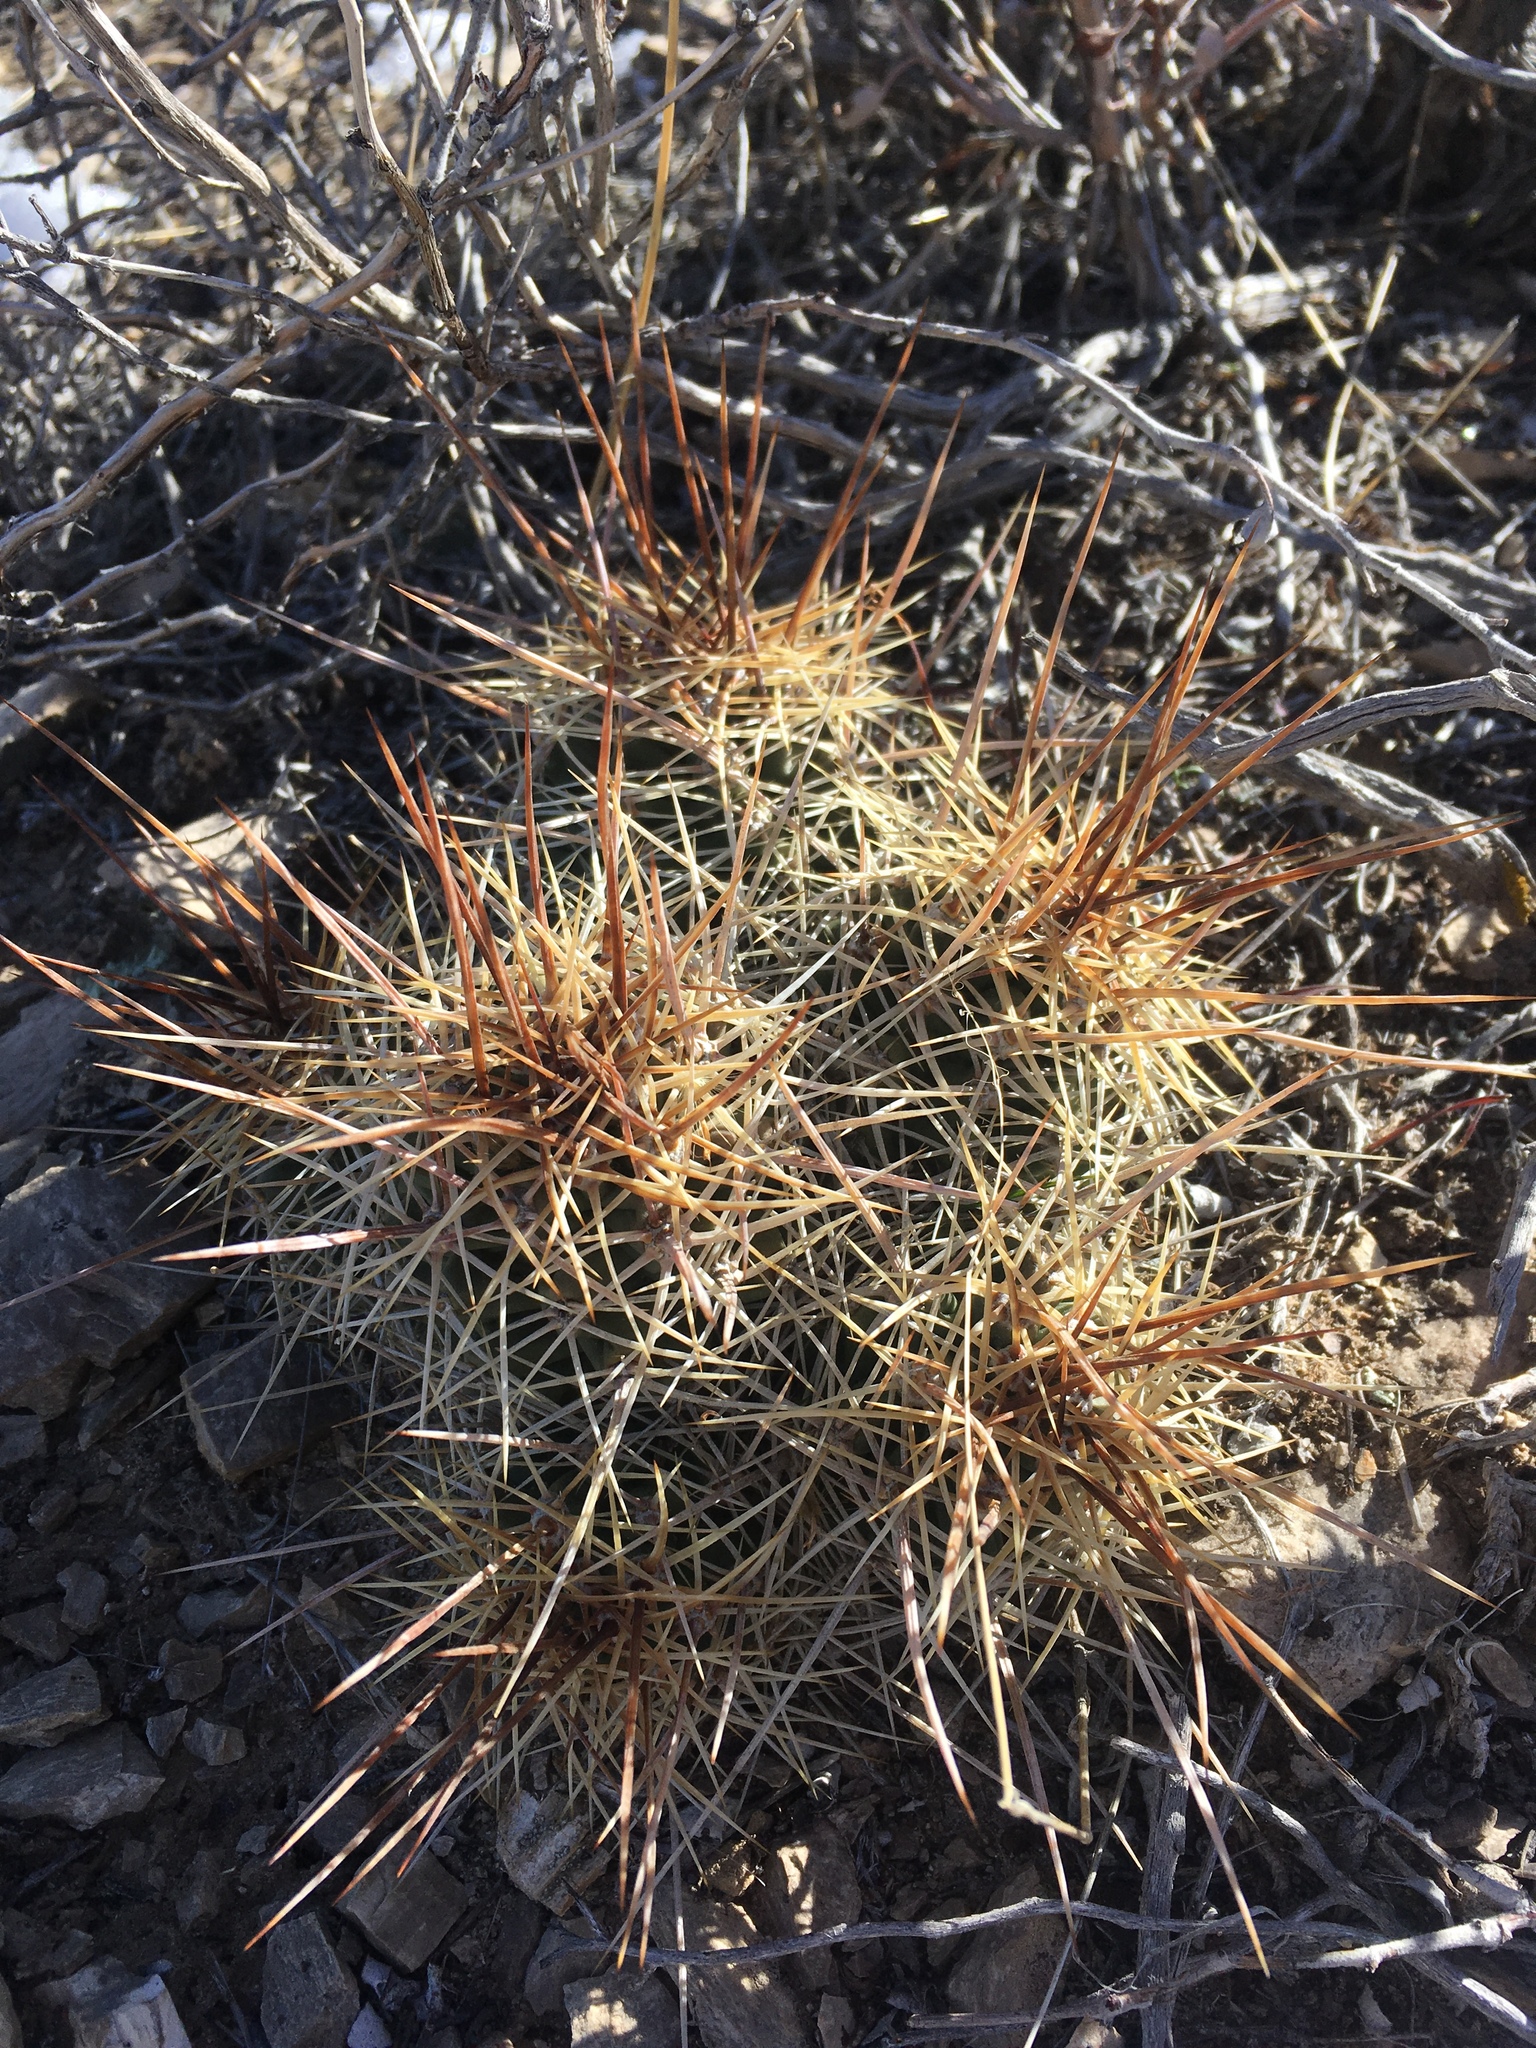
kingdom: Plantae
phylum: Tracheophyta
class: Magnoliopsida
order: Caryophyllales
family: Cactaceae
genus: Echinocereus
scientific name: Echinocereus triglochidiatus
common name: Claretcup hedgehog
